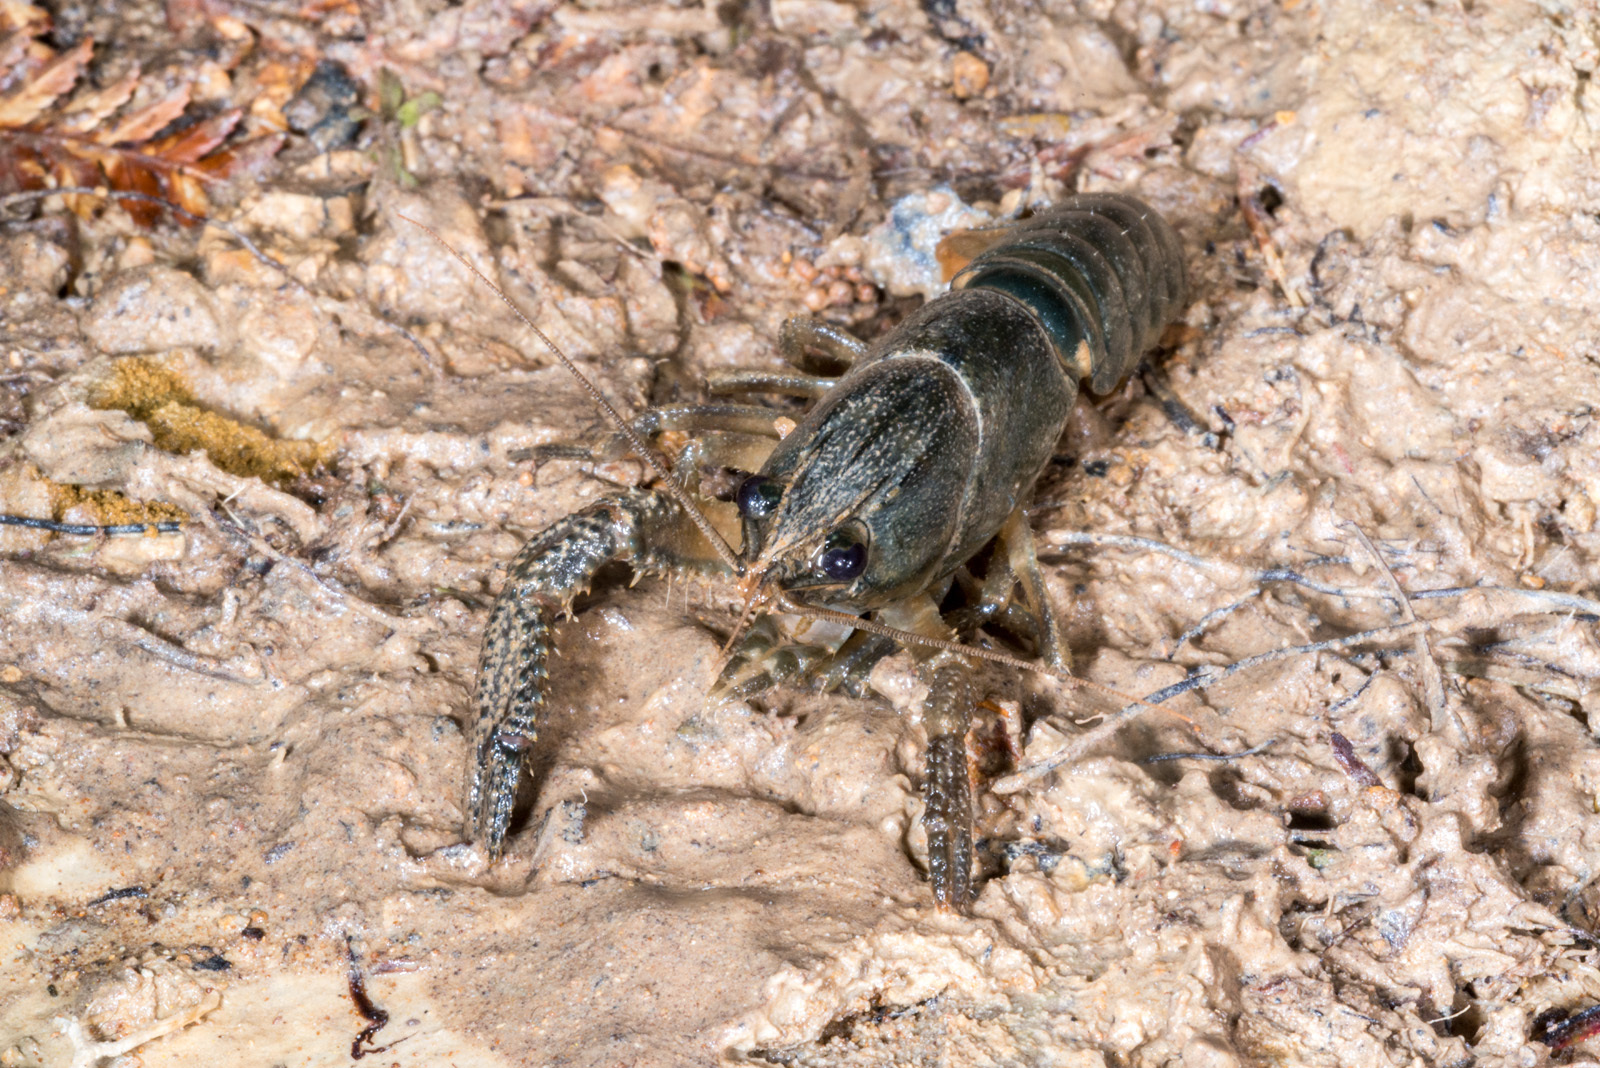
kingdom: Animalia
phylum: Arthropoda
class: Malacostraca
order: Decapoda
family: Parastacidae
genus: Paranephrops
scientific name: Paranephrops planifrons
